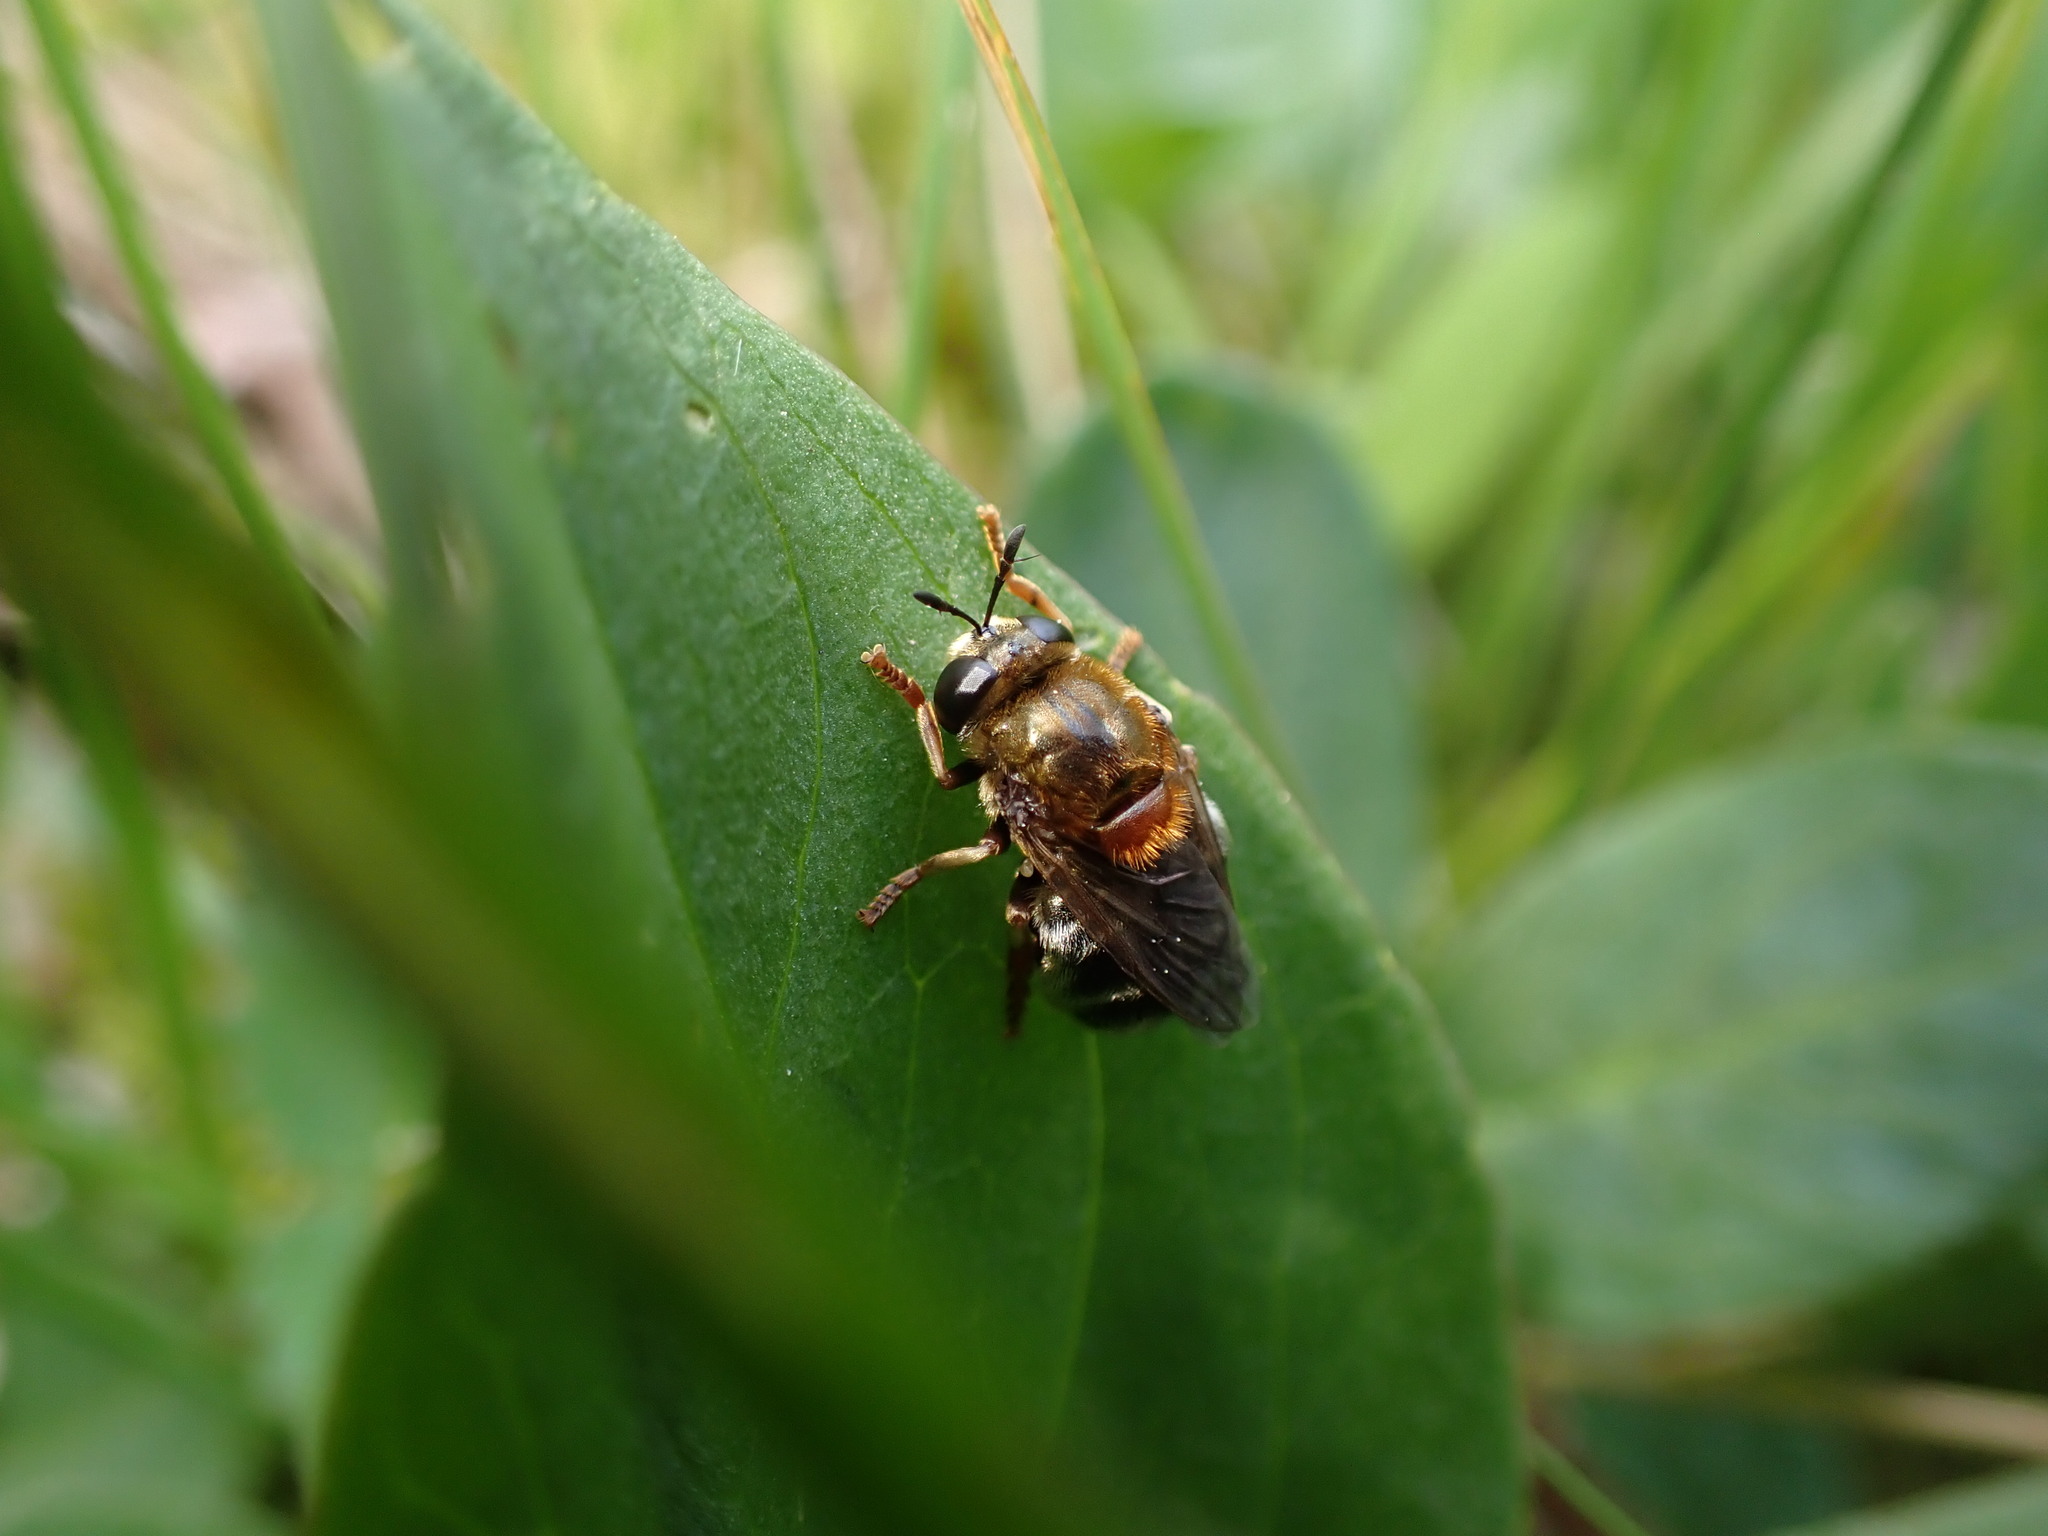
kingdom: Animalia
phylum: Arthropoda
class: Insecta
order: Diptera
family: Syrphidae
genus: Microdon
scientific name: Microdon myrmicae
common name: Bog ant fly
